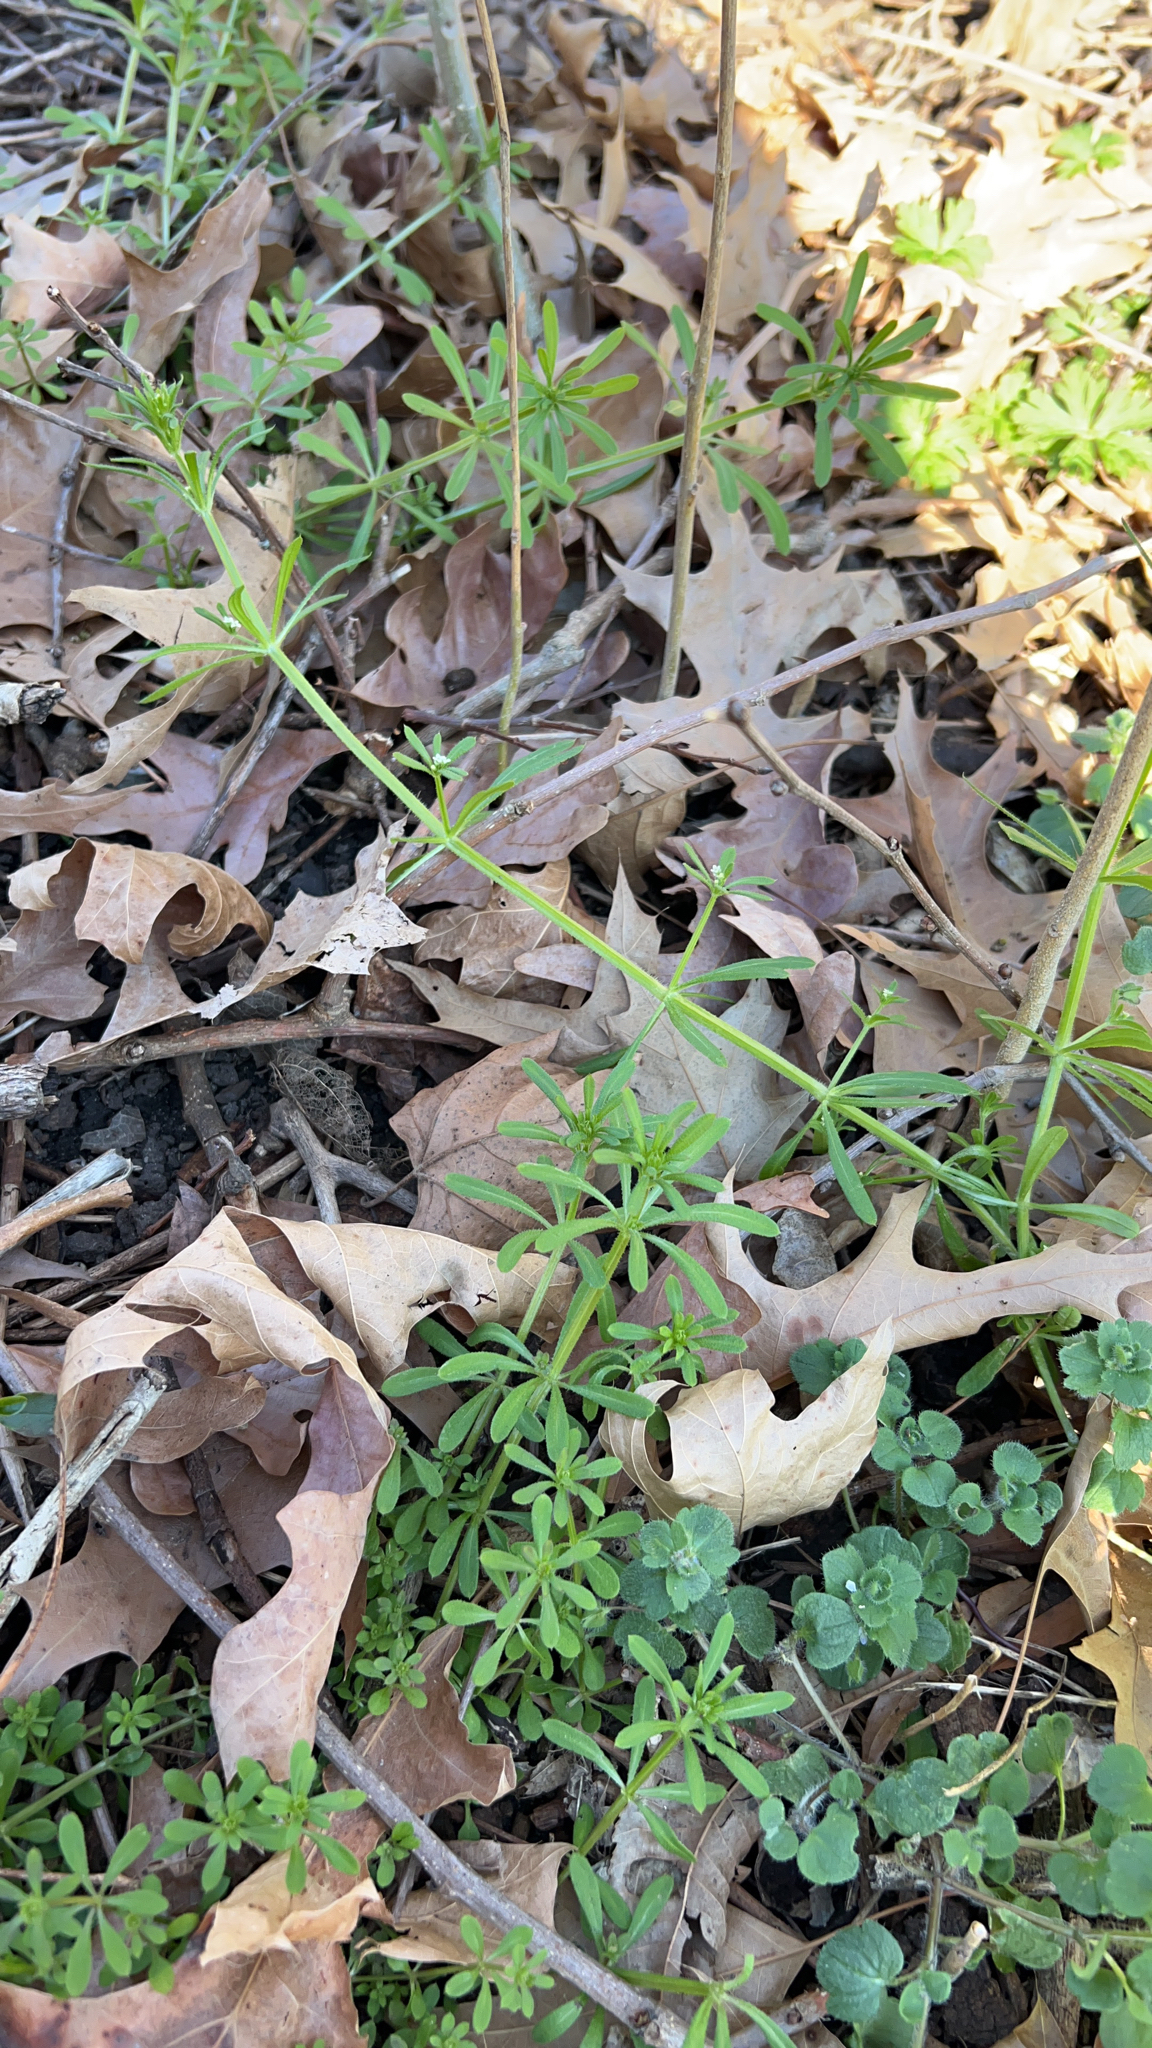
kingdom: Plantae
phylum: Tracheophyta
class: Magnoliopsida
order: Gentianales
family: Rubiaceae
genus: Galium
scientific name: Galium aparine
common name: Cleavers
